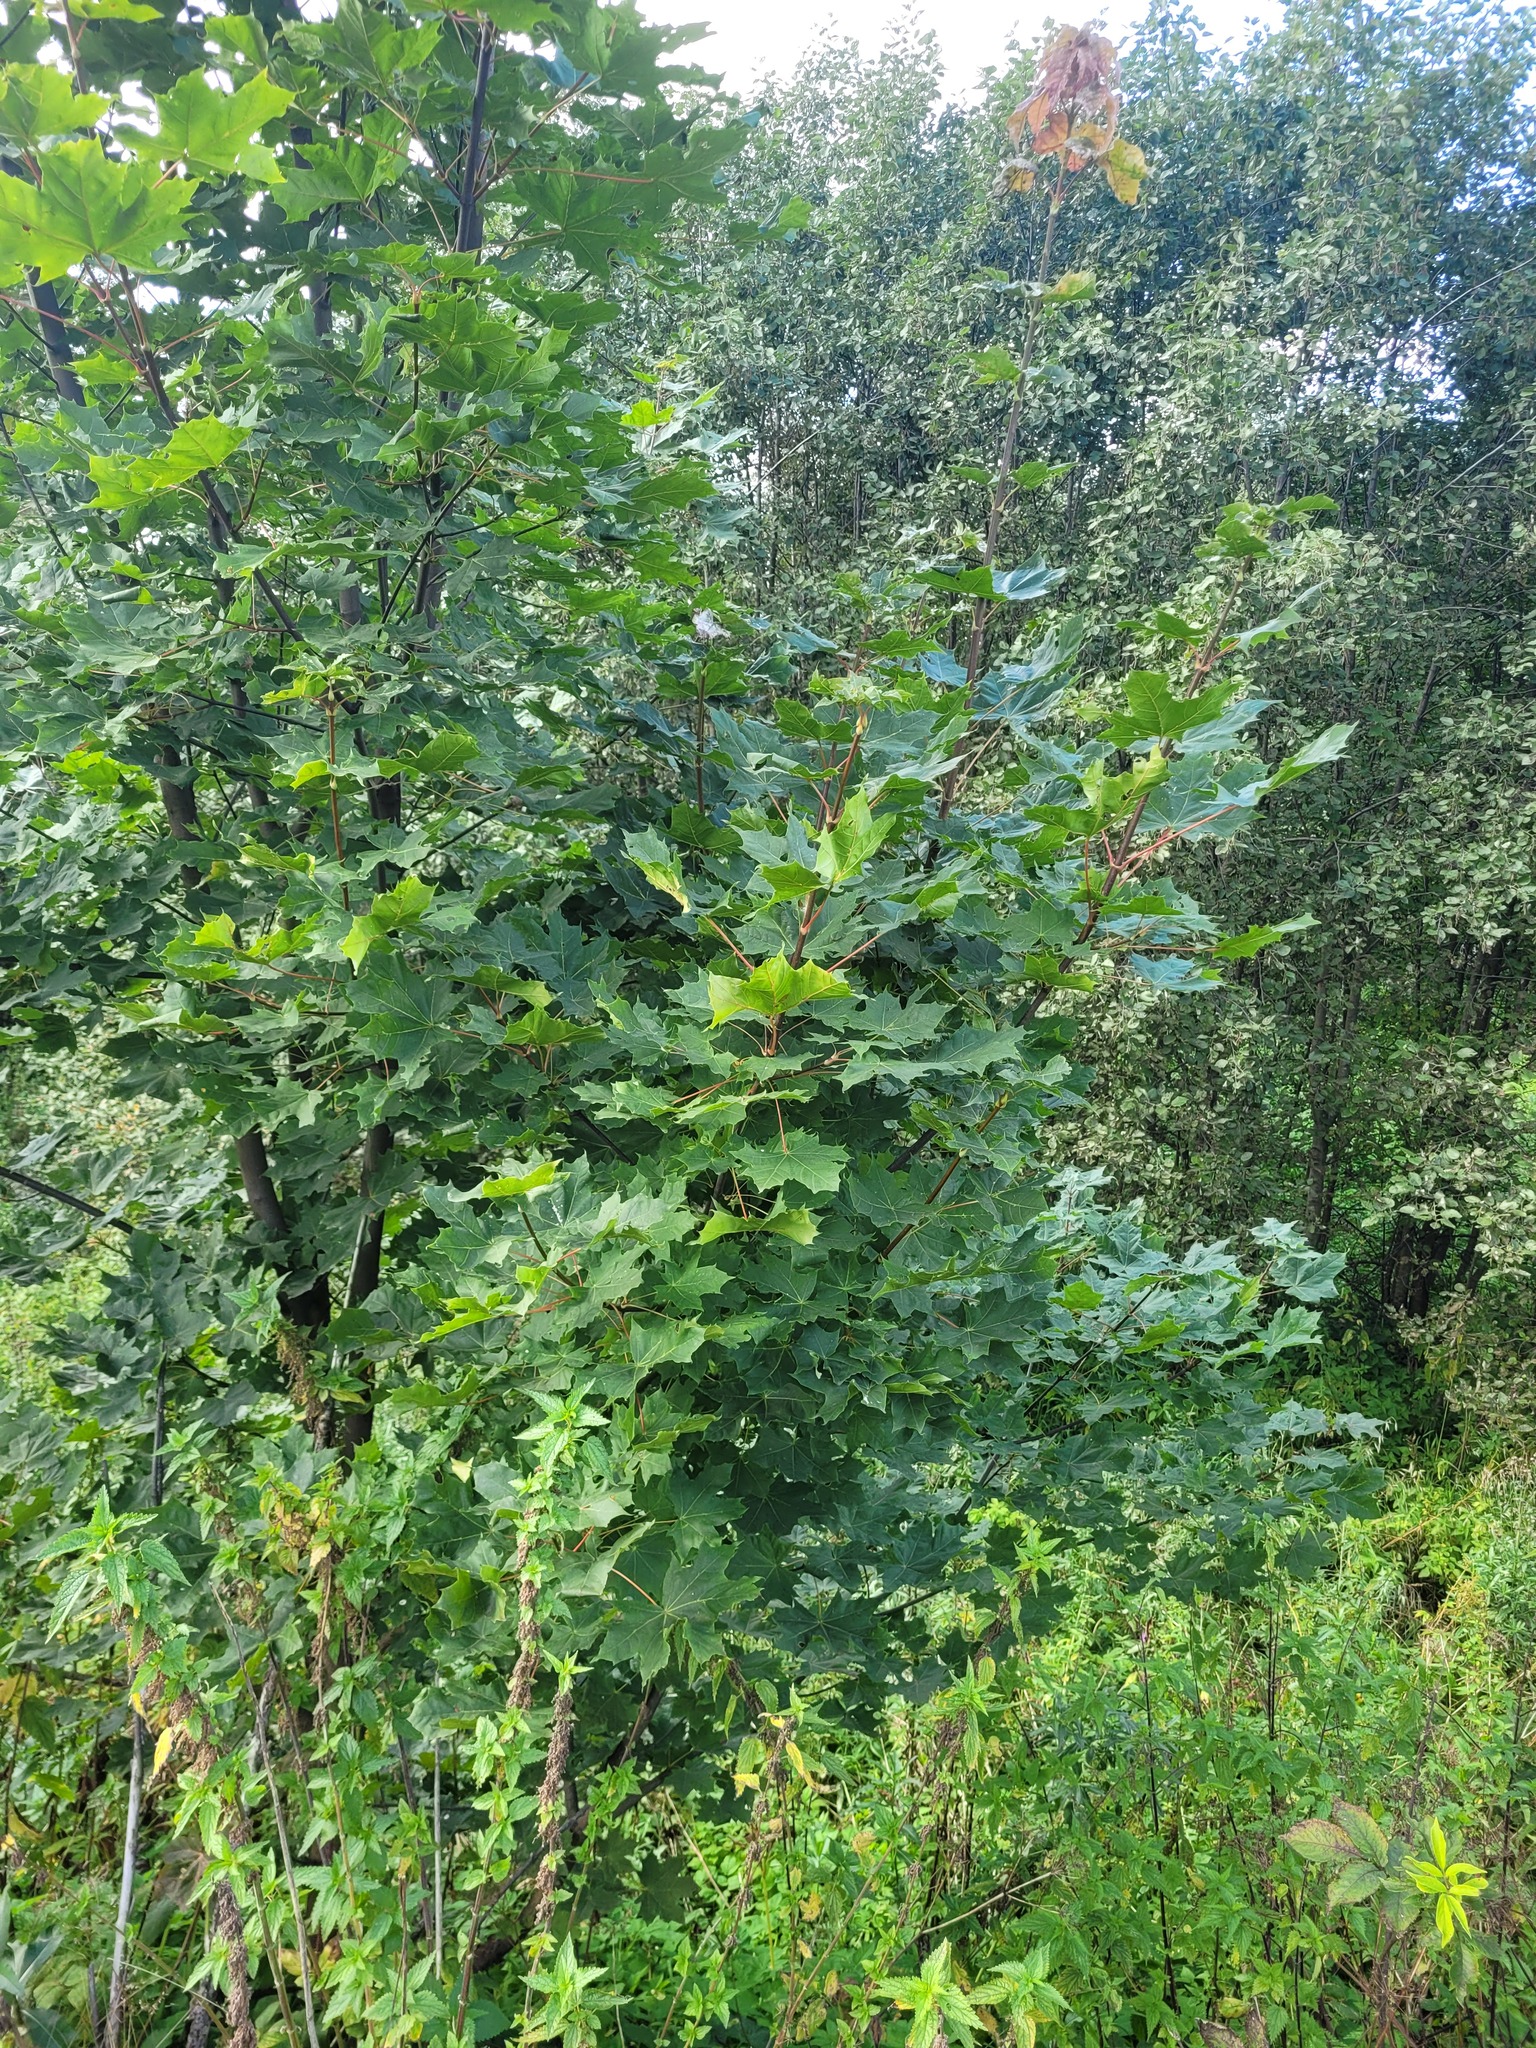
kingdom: Plantae
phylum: Tracheophyta
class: Magnoliopsida
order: Sapindales
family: Sapindaceae
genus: Acer
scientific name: Acer platanoides
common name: Norway maple
